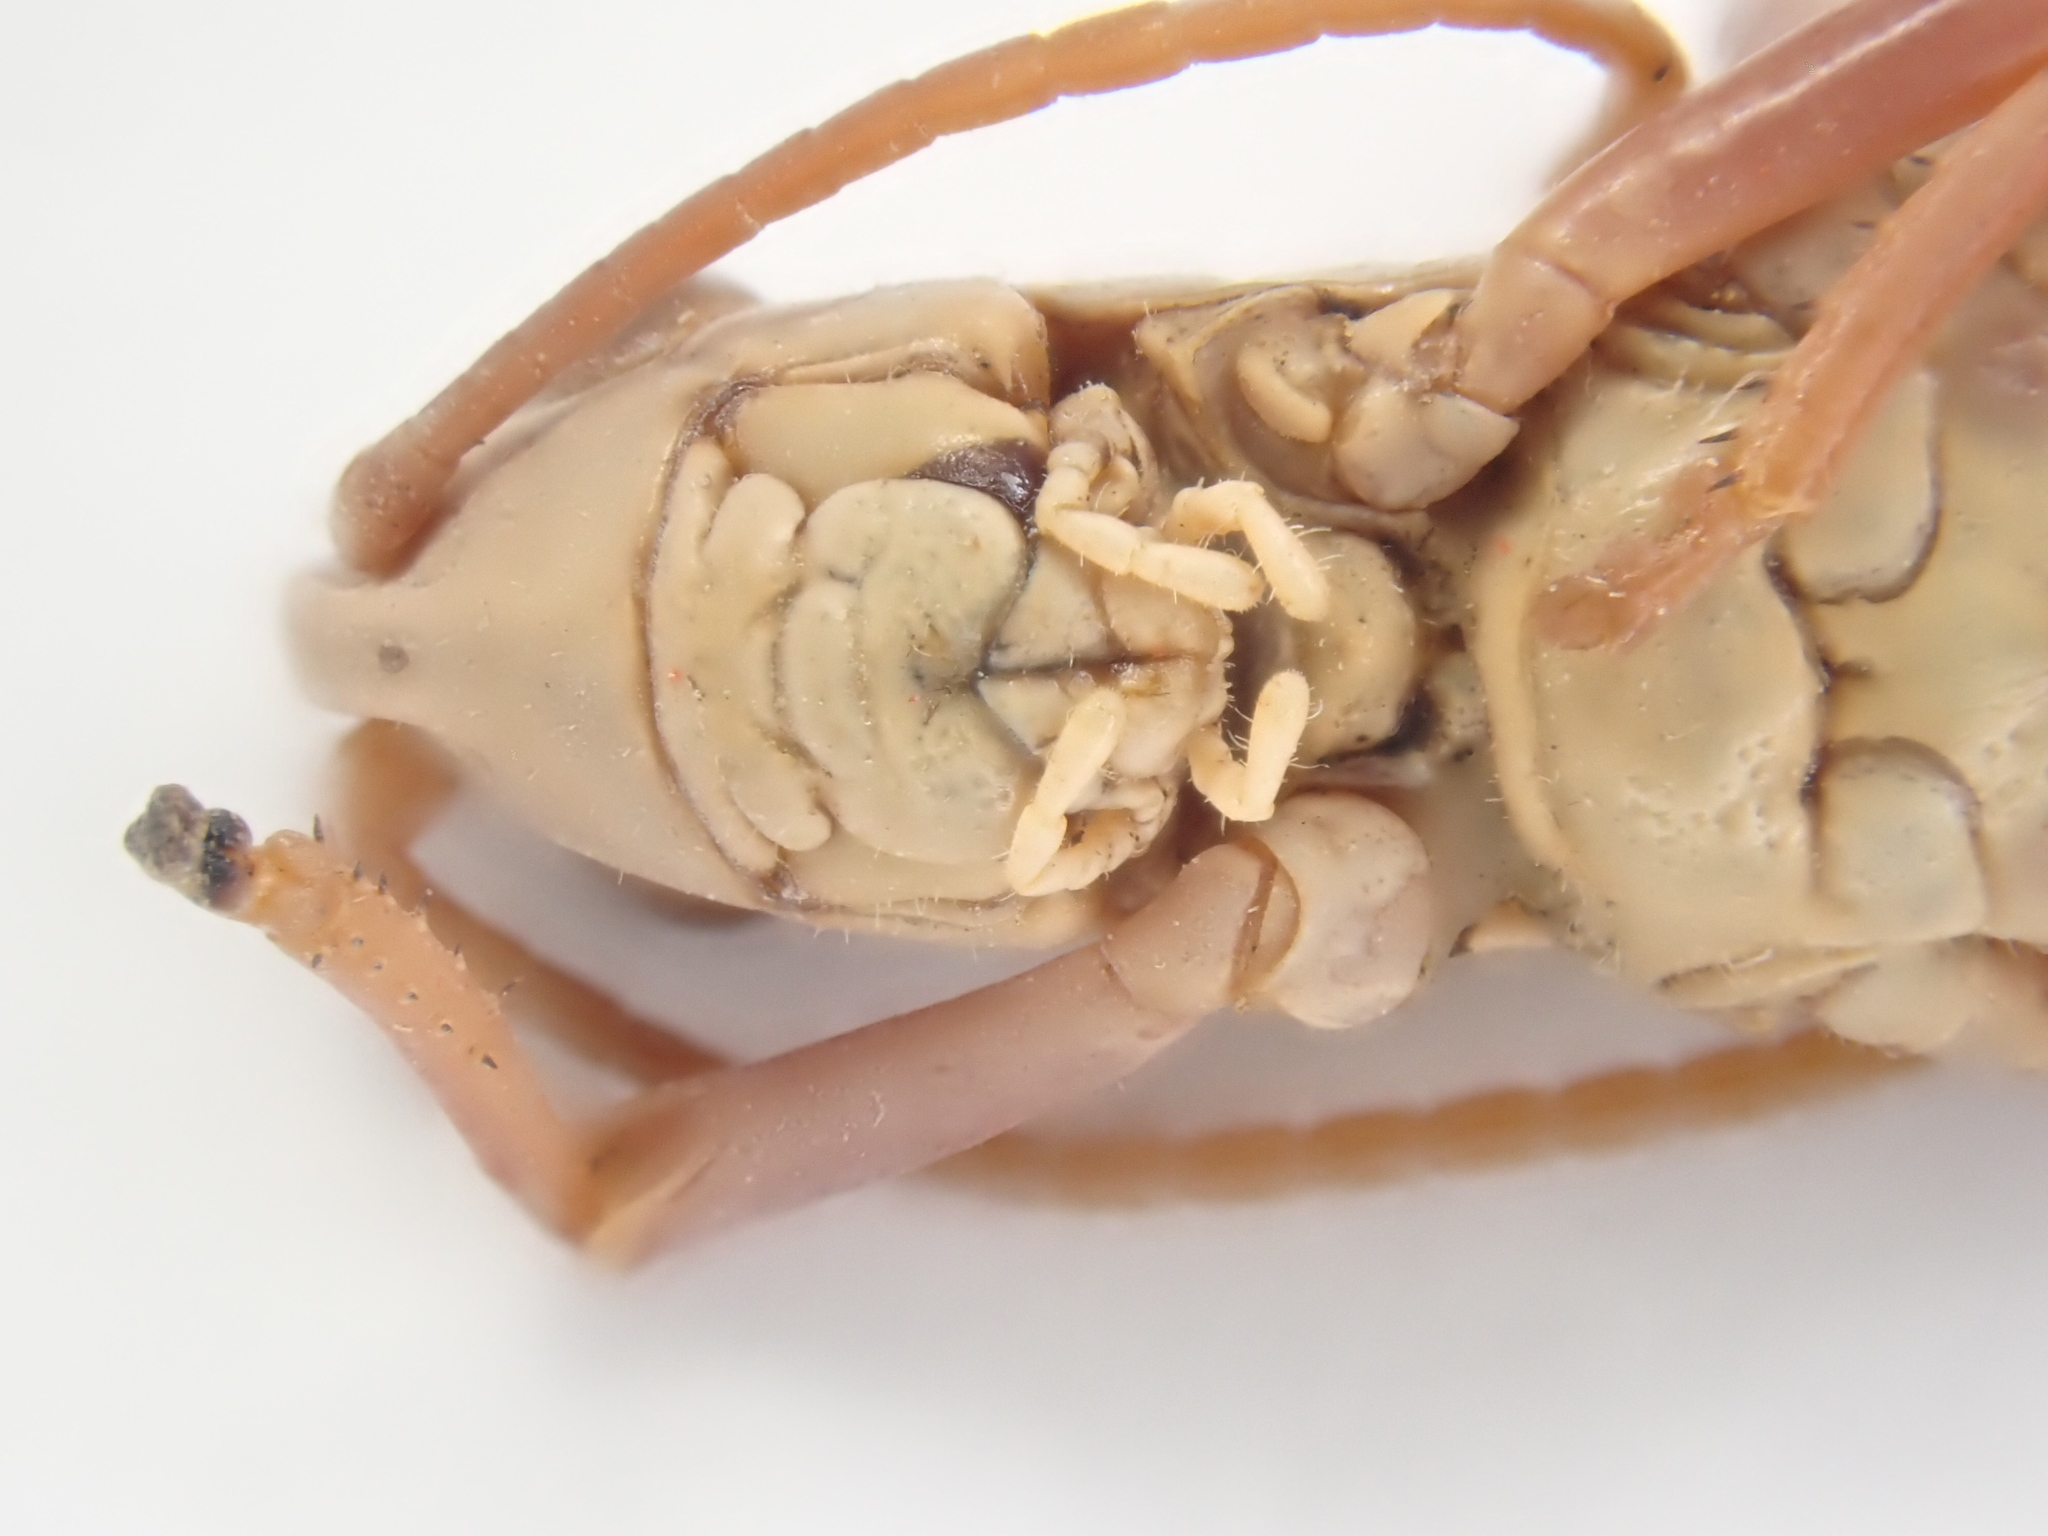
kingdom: Animalia
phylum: Arthropoda
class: Insecta
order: Orthoptera
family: Acrididae
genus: Pseudochorthippus
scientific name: Pseudochorthippus parallelus
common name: Meadow grasshopper
